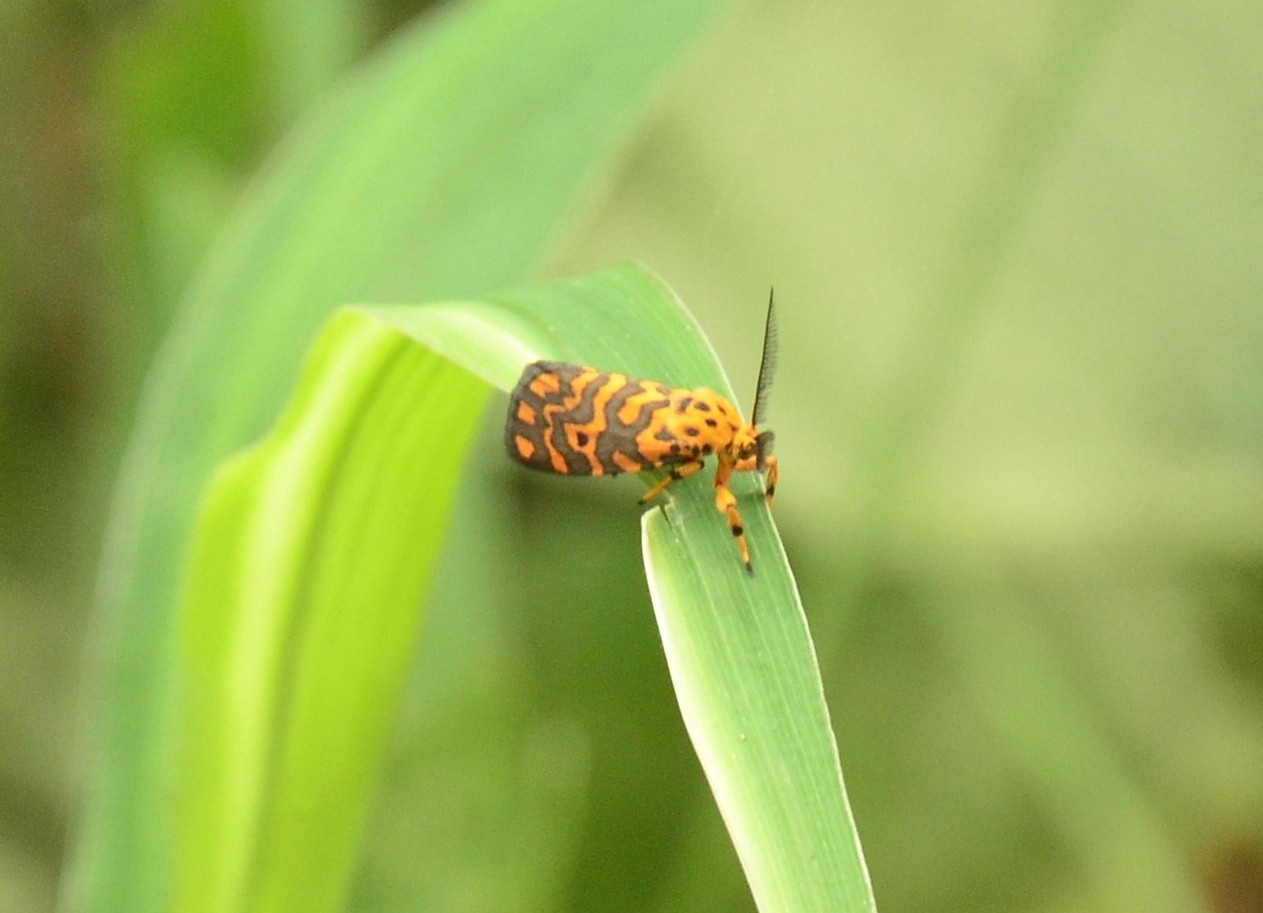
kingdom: Animalia
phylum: Arthropoda
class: Insecta
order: Lepidoptera
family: Erebidae
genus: Nepita
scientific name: Nepita conferta
